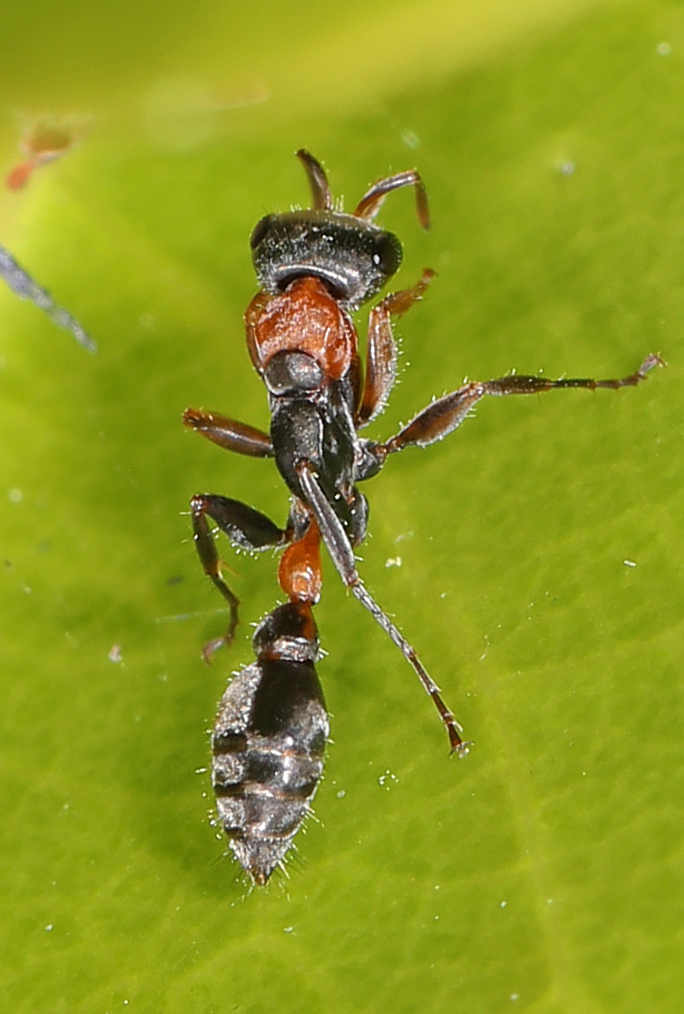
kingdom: Animalia
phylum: Arthropoda
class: Insecta
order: Hymenoptera
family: Formicidae
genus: Pseudomyrmex
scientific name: Pseudomyrmex gracilis
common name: Graceful twig ant
